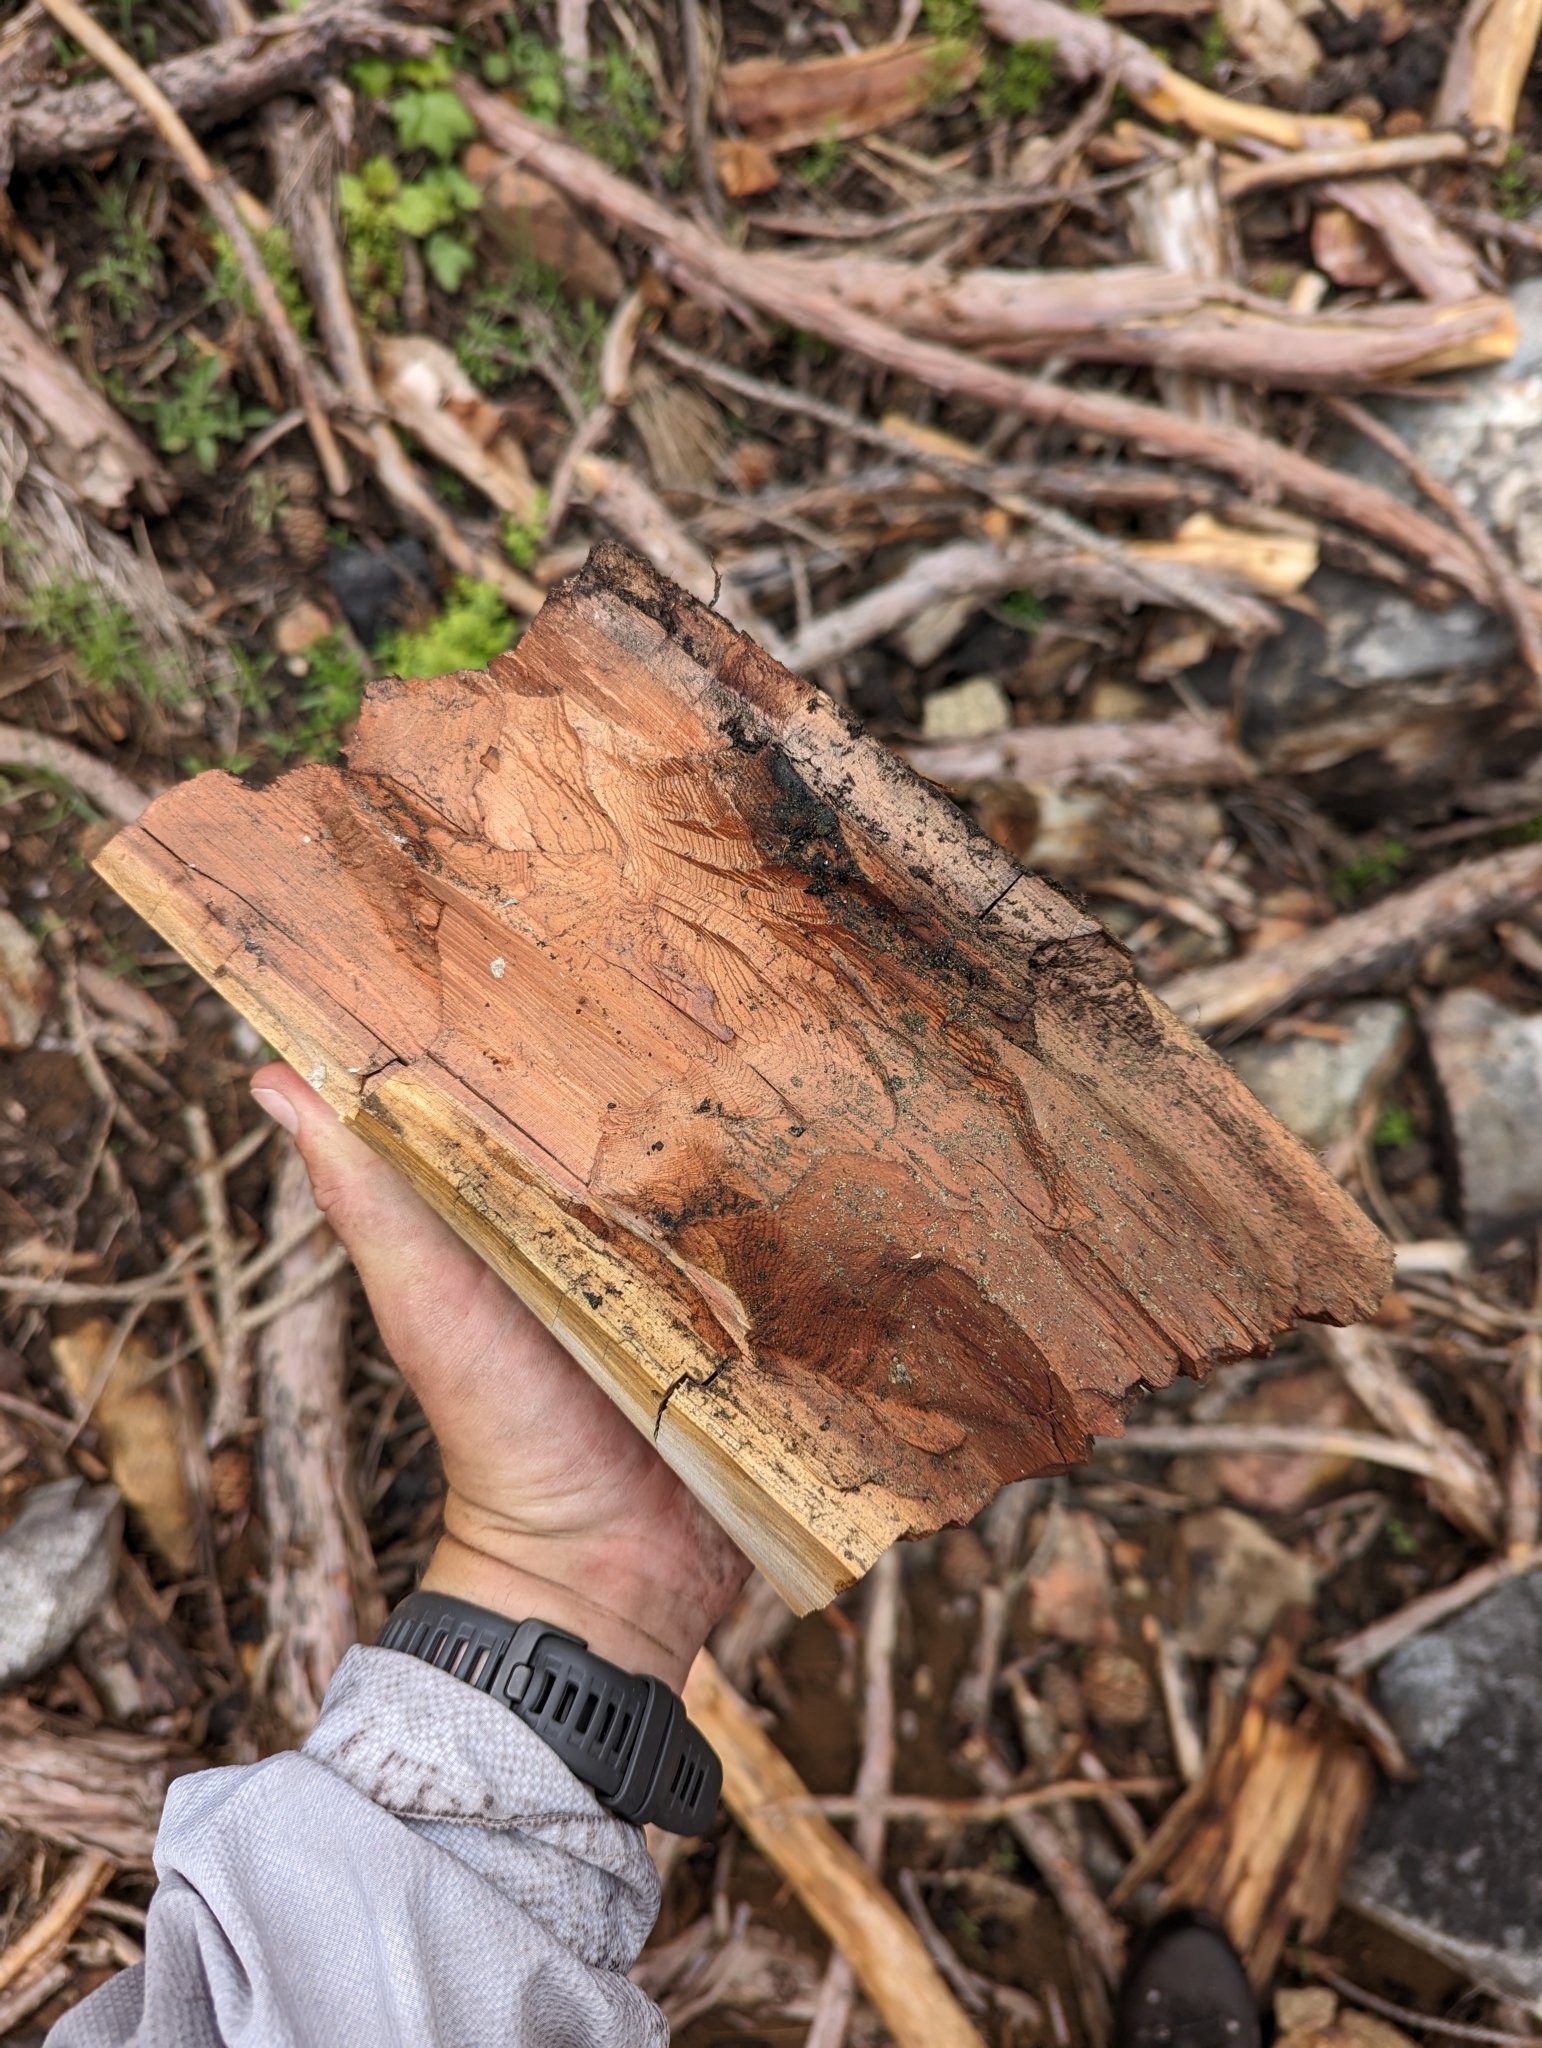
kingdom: Plantae
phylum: Tracheophyta
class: Pinopsida
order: Pinales
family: Cupressaceae
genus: Sequoiadendron
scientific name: Sequoiadendron giganteum
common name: Wellingtonia
